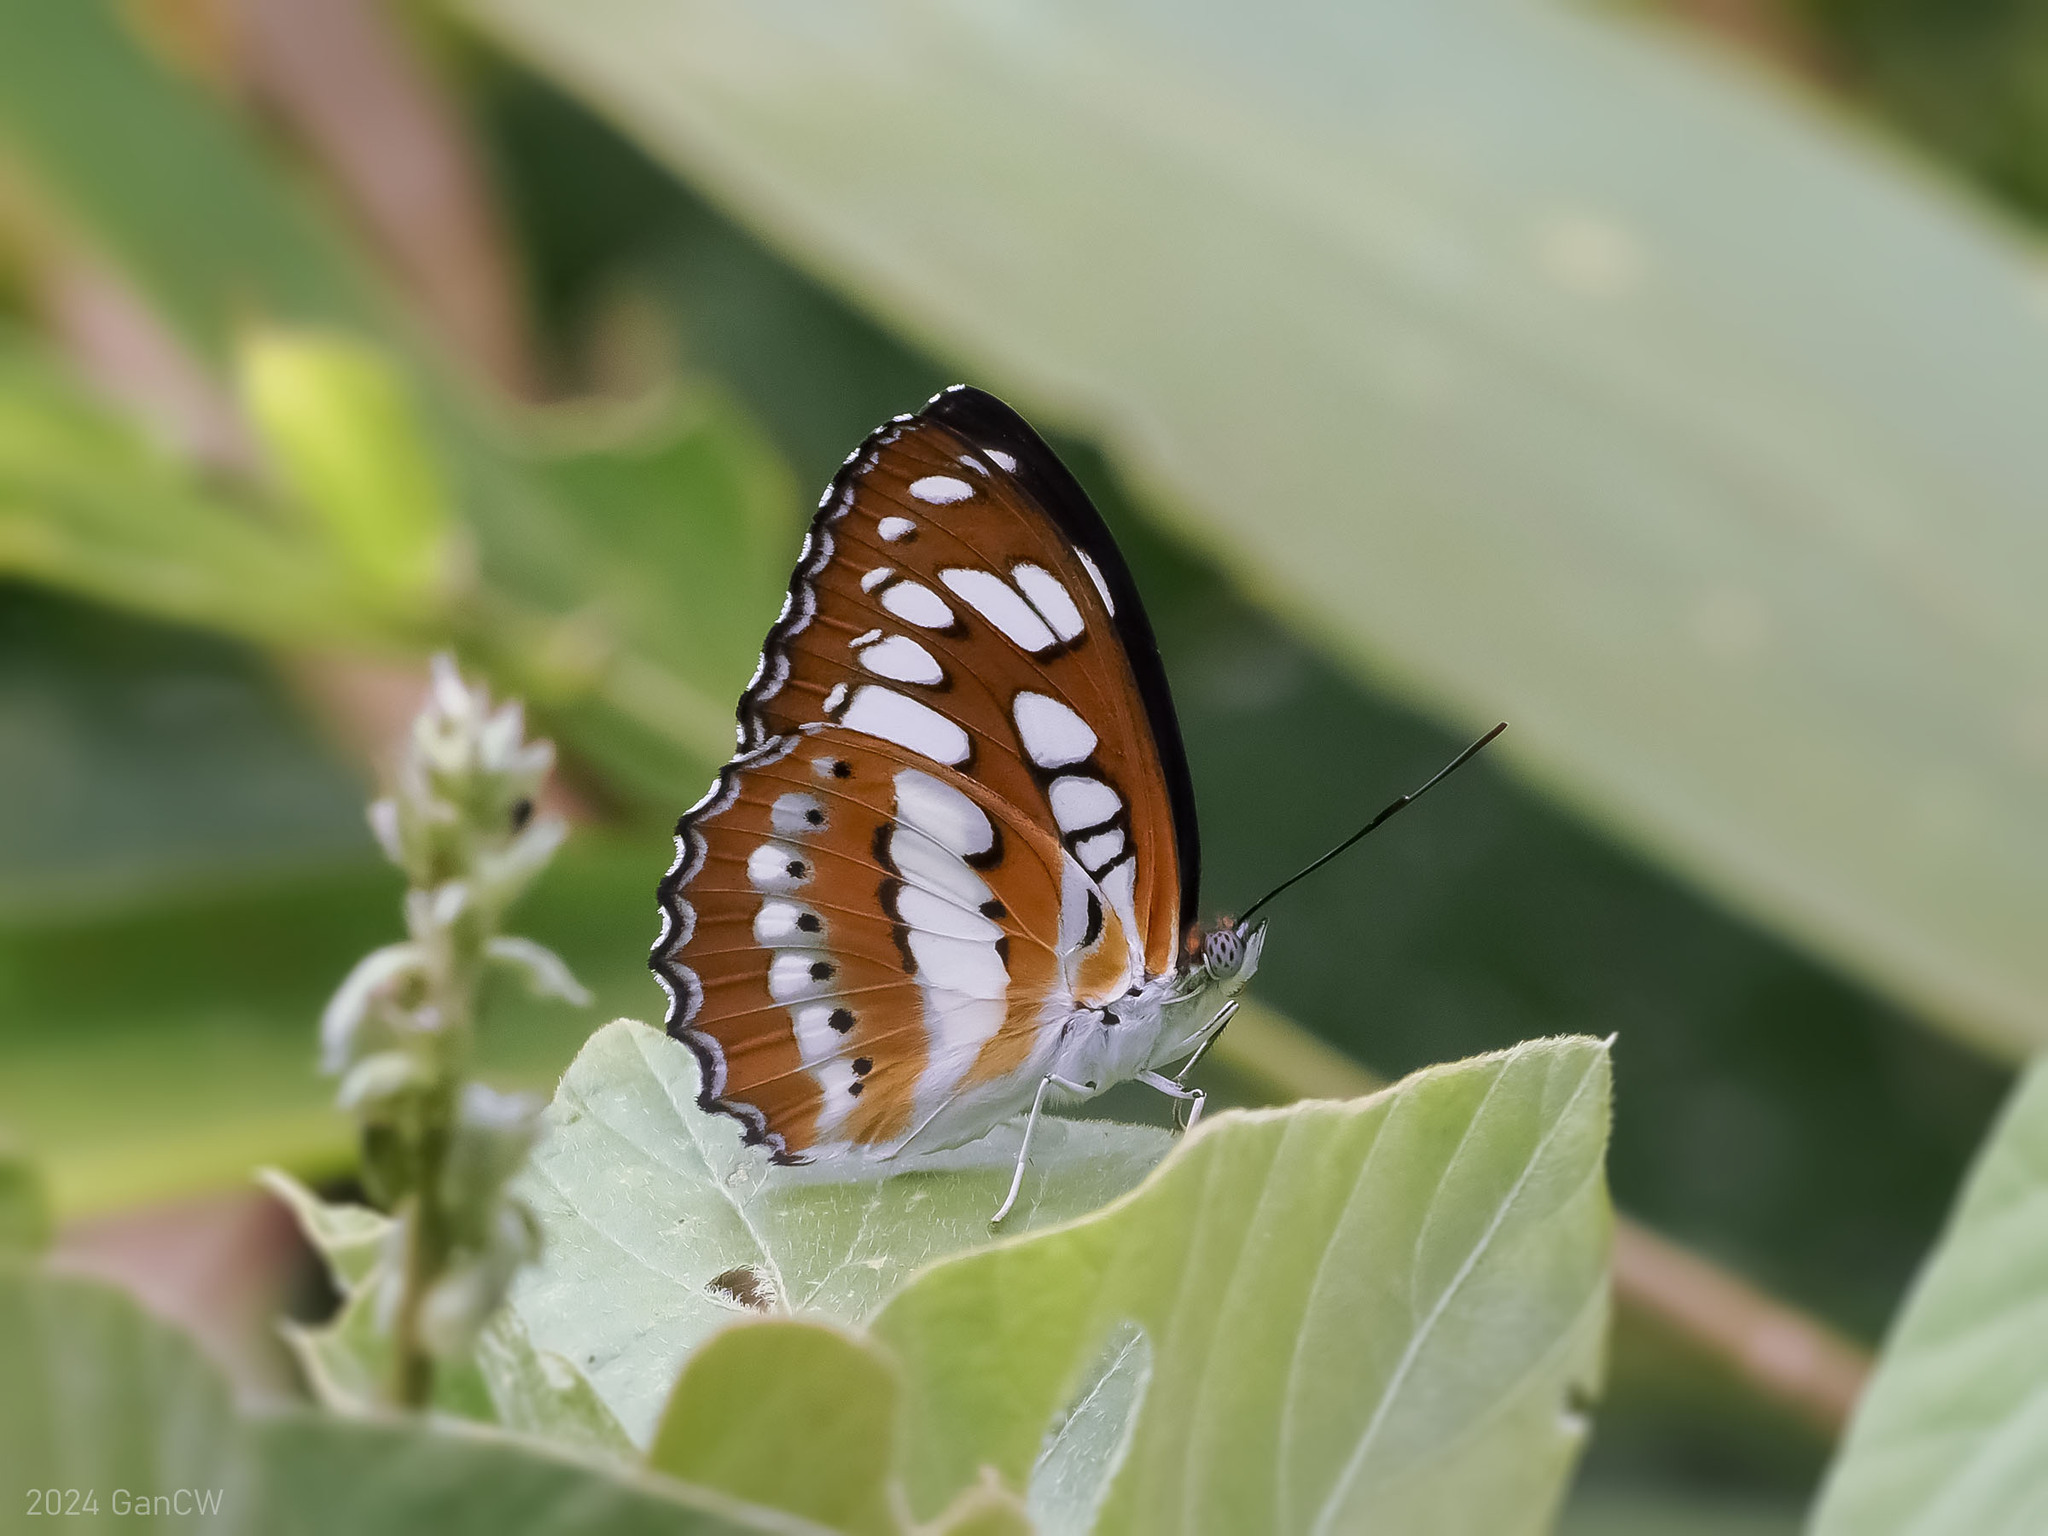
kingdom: Animalia
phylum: Arthropoda
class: Insecta
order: Lepidoptera
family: Nymphalidae
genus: Parathyma
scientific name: Parathyma perius
